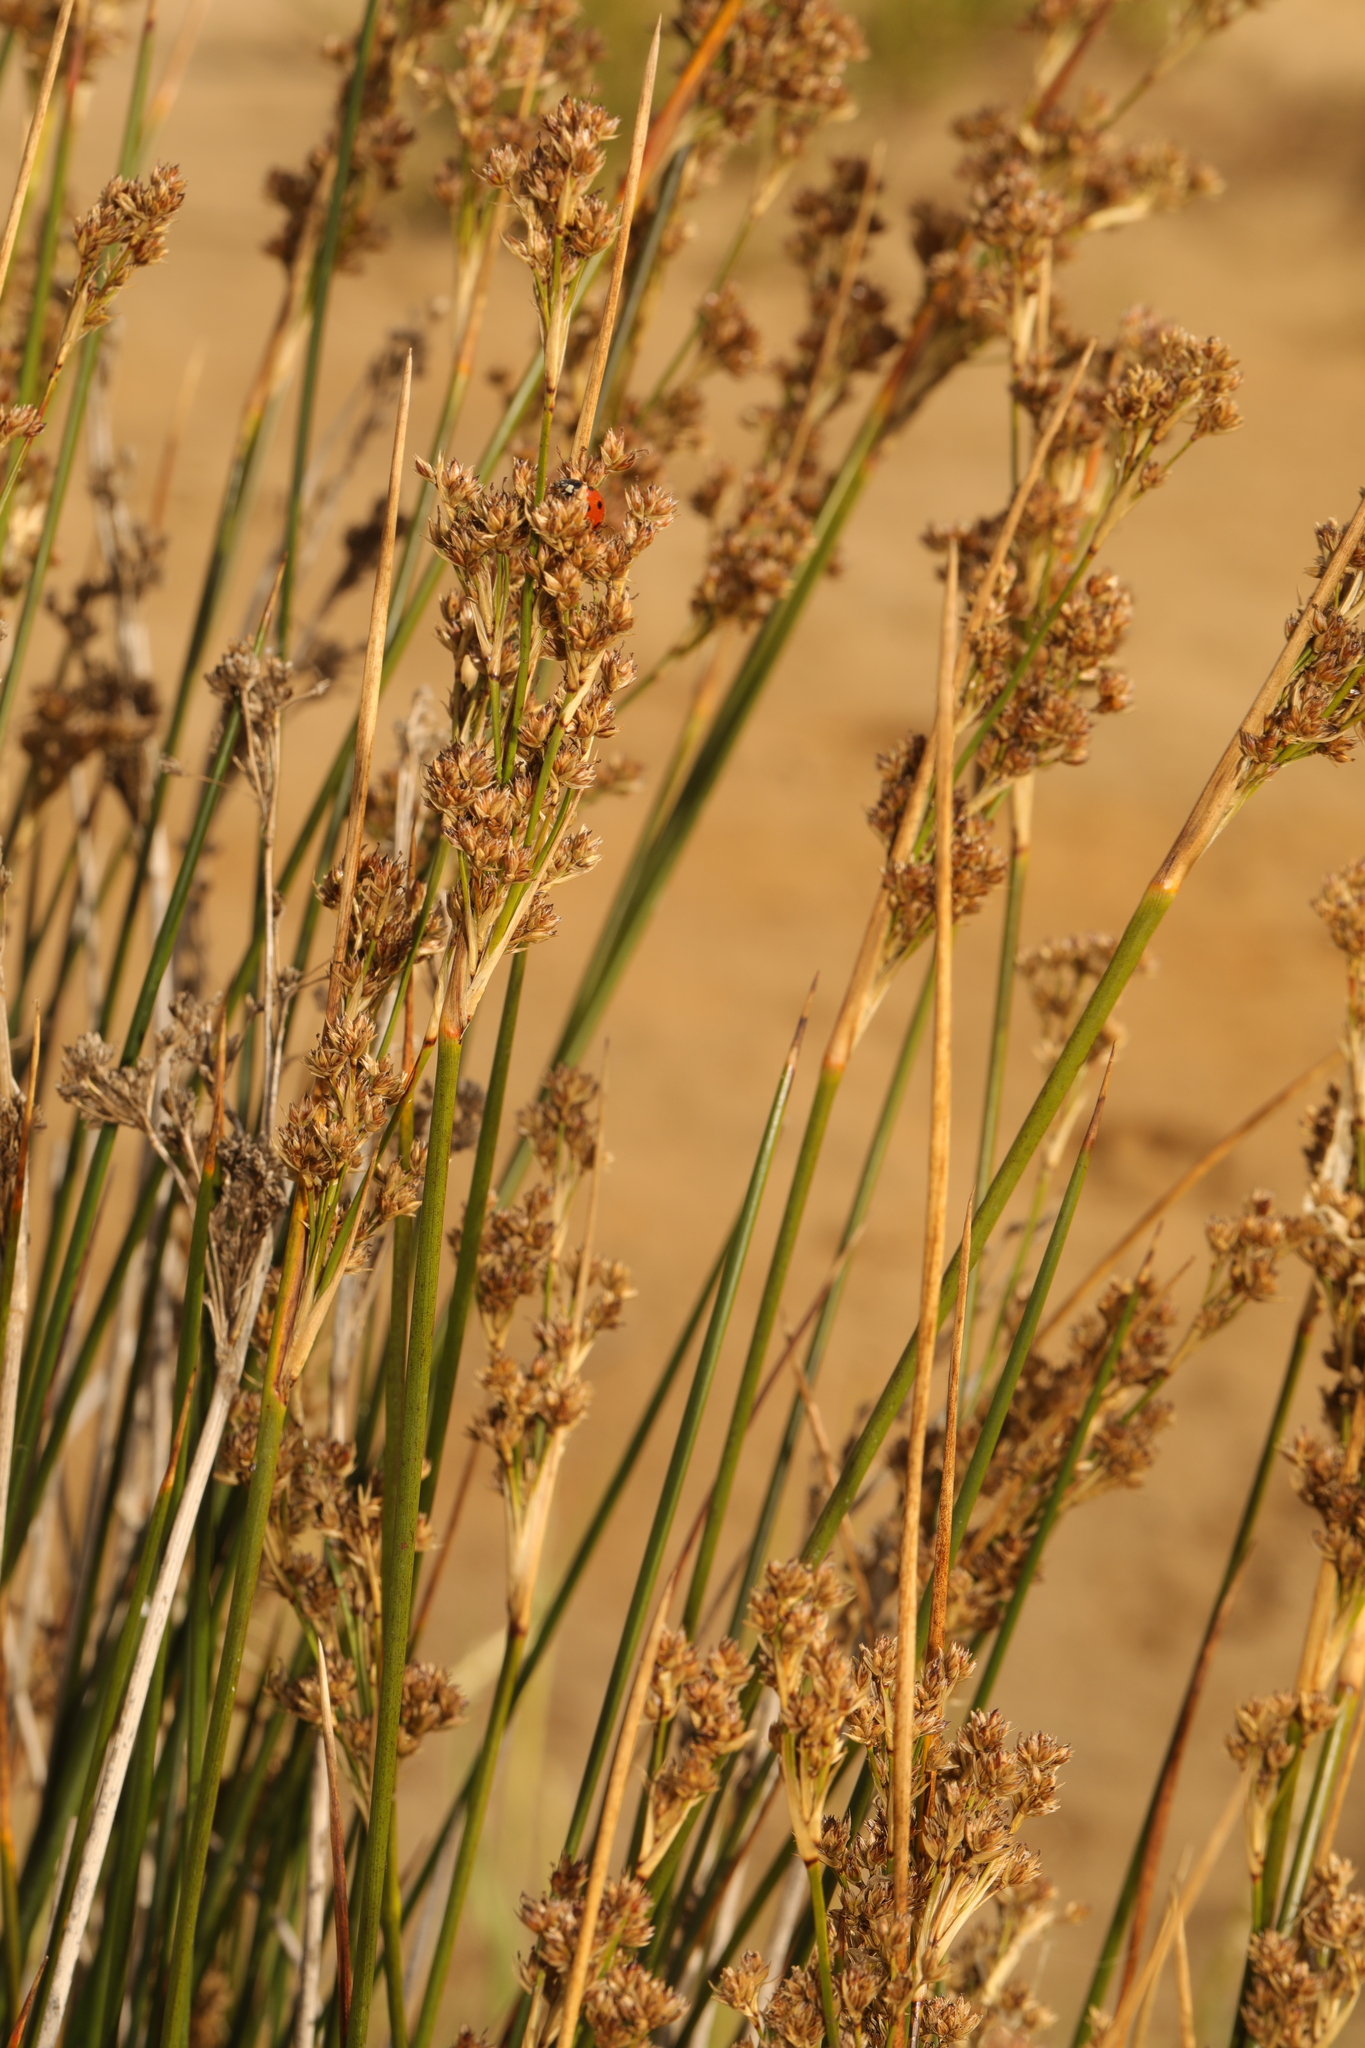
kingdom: Plantae
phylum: Tracheophyta
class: Liliopsida
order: Poales
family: Juncaceae
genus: Juncus
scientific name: Juncus maritimus
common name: Sea rush
